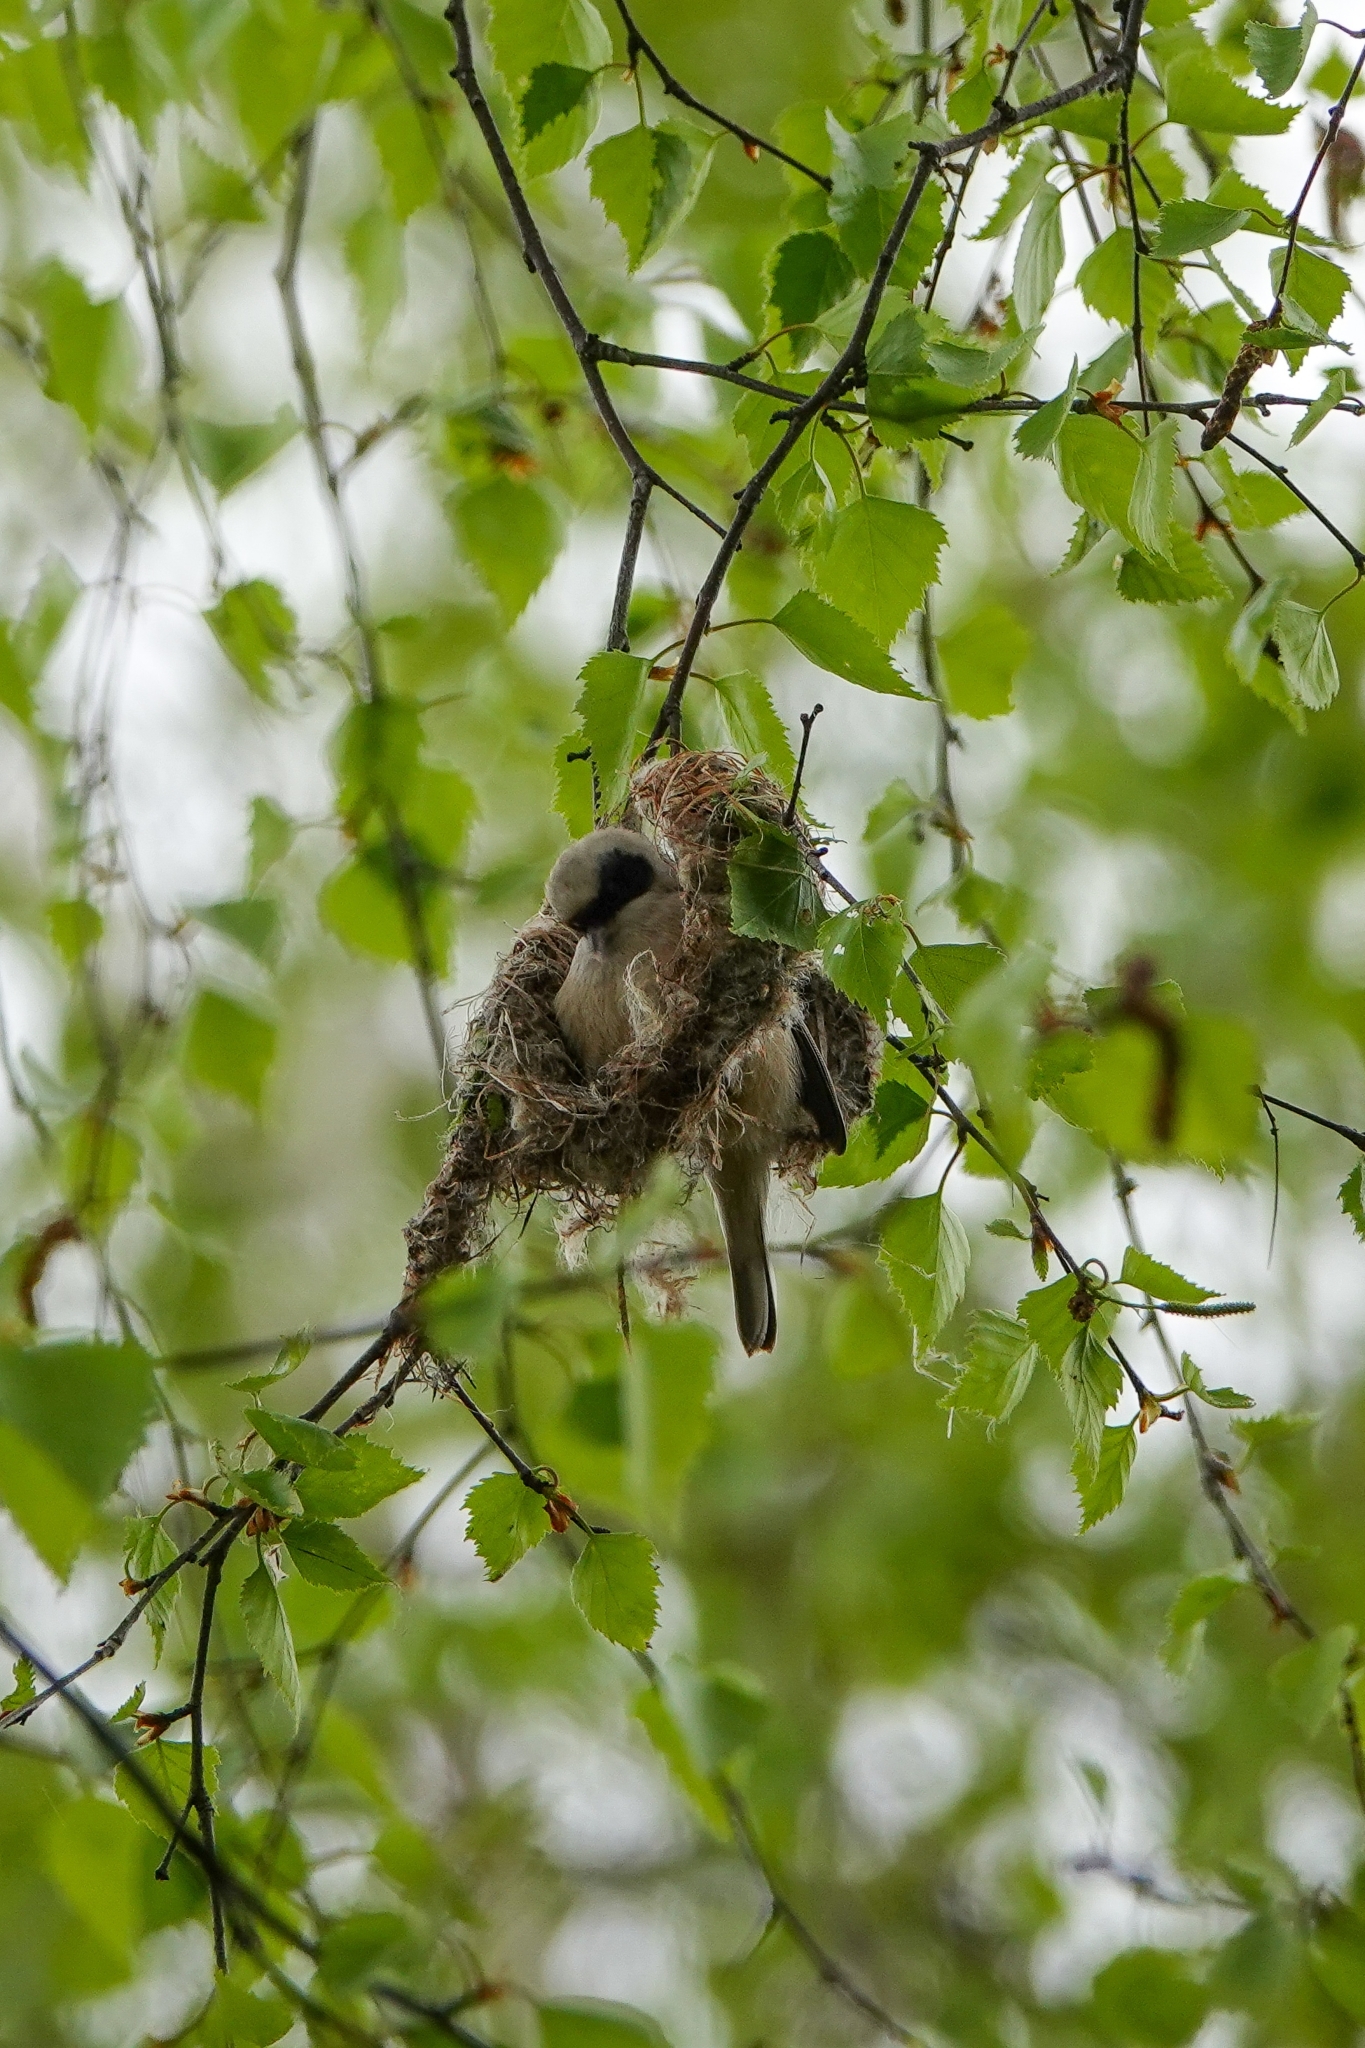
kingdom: Animalia
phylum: Chordata
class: Aves
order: Passeriformes
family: Remizidae
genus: Remiz
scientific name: Remiz pendulinus
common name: Eurasian penduline tit
